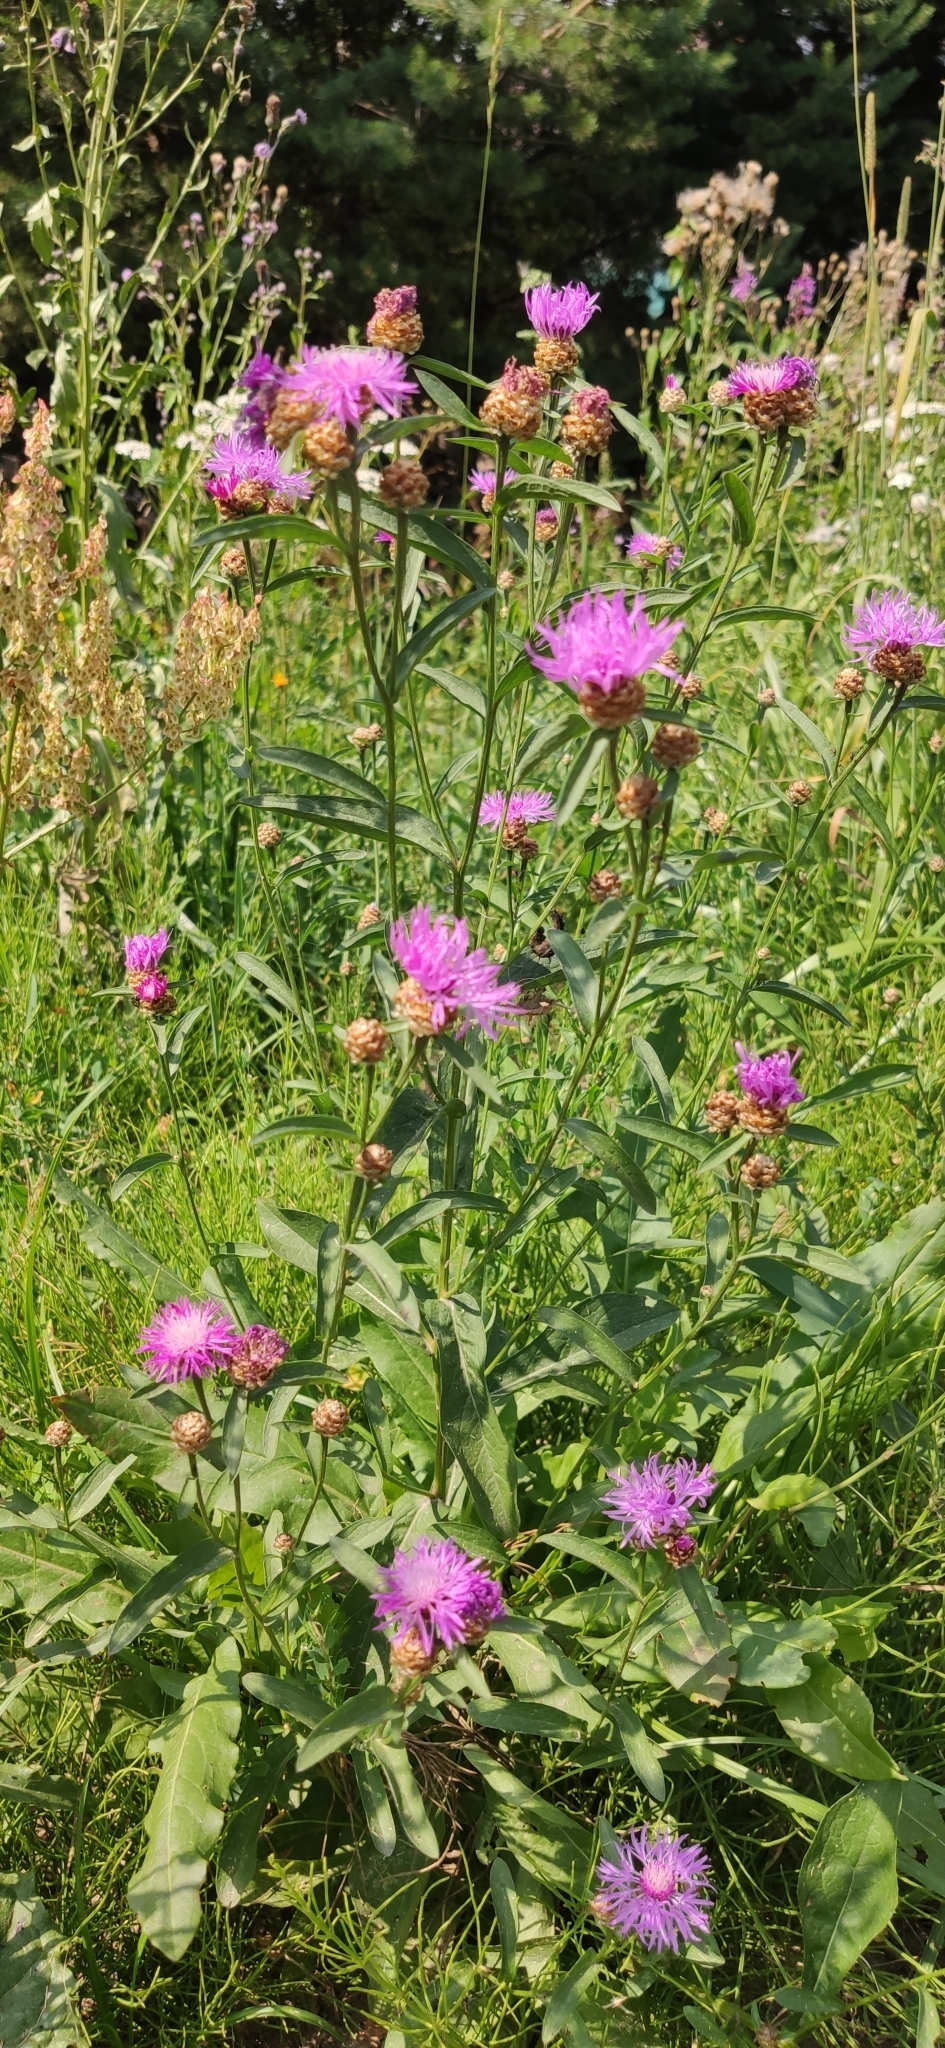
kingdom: Plantae
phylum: Tracheophyta
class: Magnoliopsida
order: Asterales
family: Asteraceae
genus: Centaurea
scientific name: Centaurea jacea
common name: Brown knapweed
